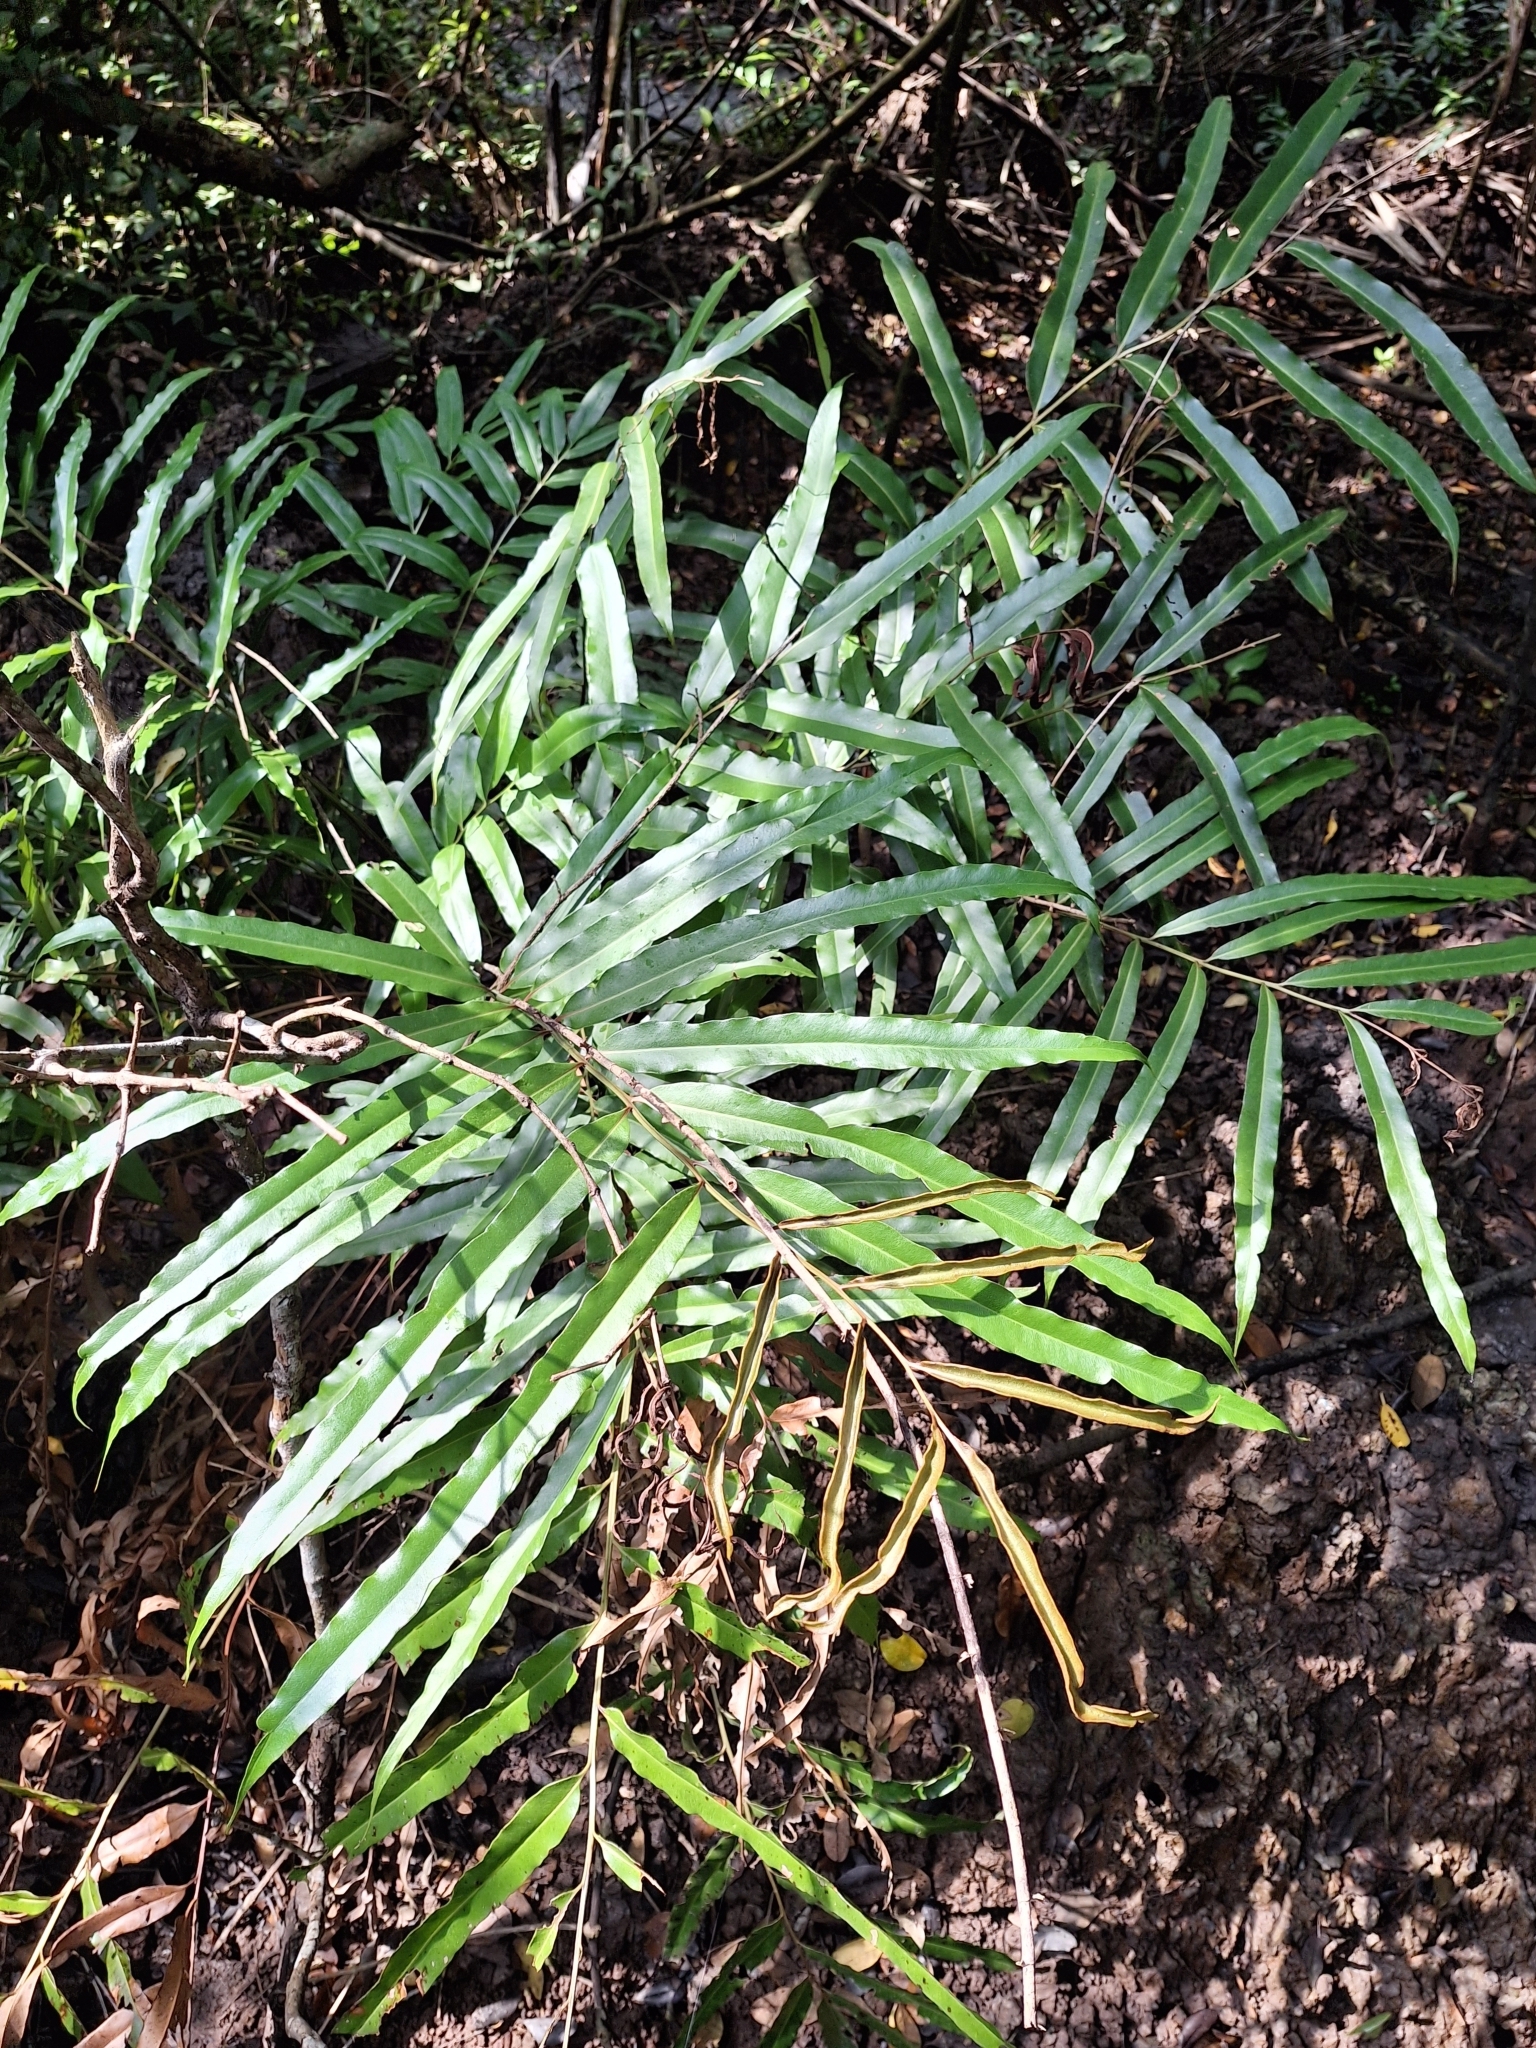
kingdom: Plantae
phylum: Tracheophyta
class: Polypodiopsida
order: Polypodiales
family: Pteridaceae
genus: Acrostichum
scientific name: Acrostichum speciosum
